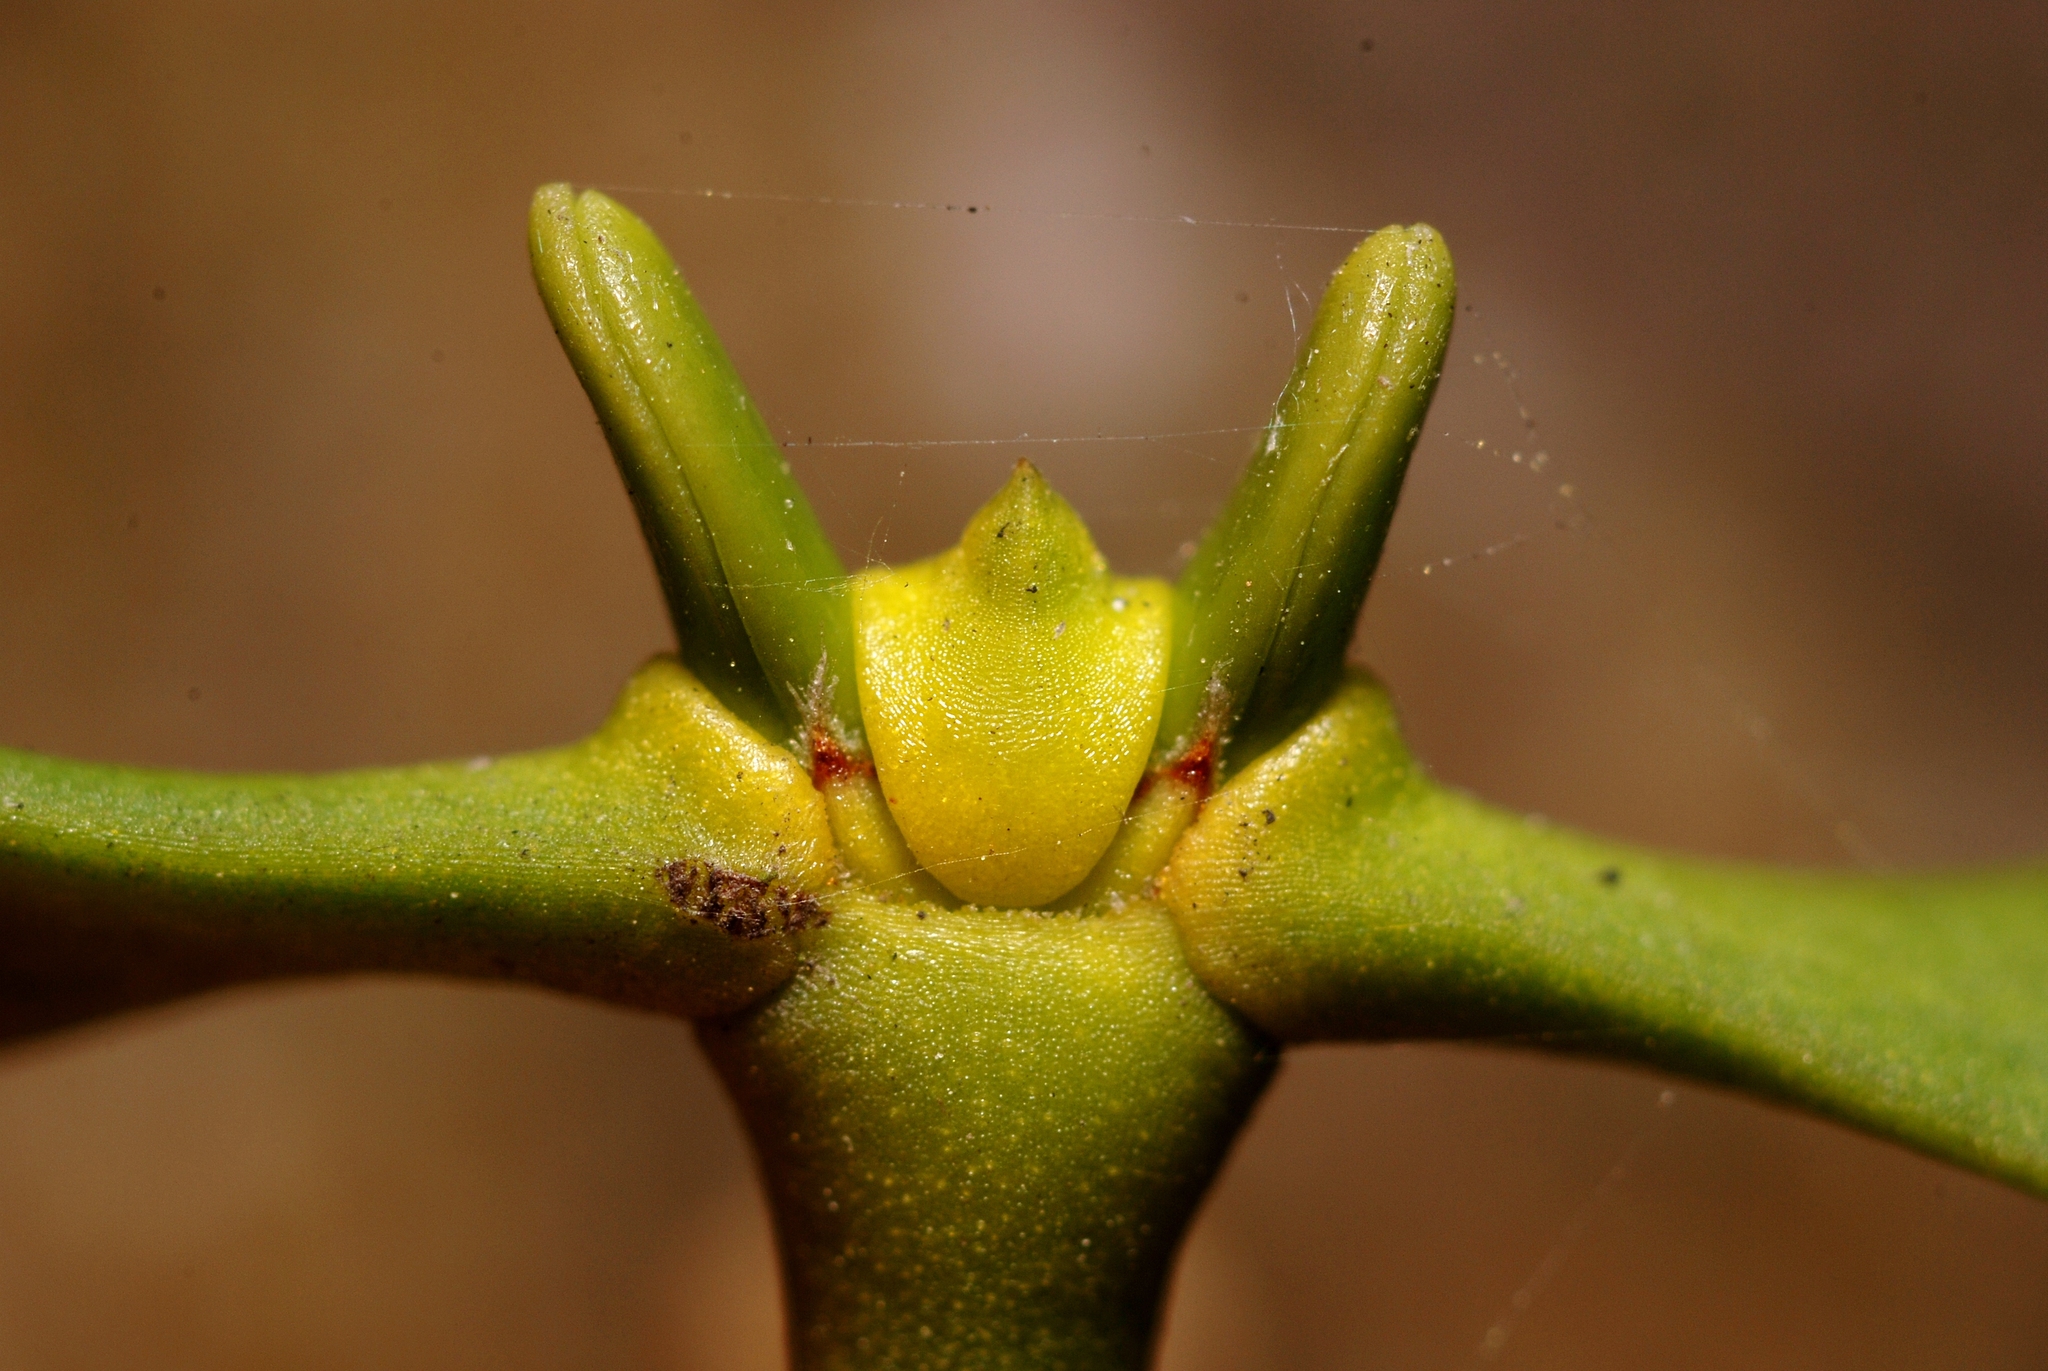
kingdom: Plantae
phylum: Tracheophyta
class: Magnoliopsida
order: Santalales
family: Viscaceae
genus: Viscum
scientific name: Viscum album
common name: Mistletoe
